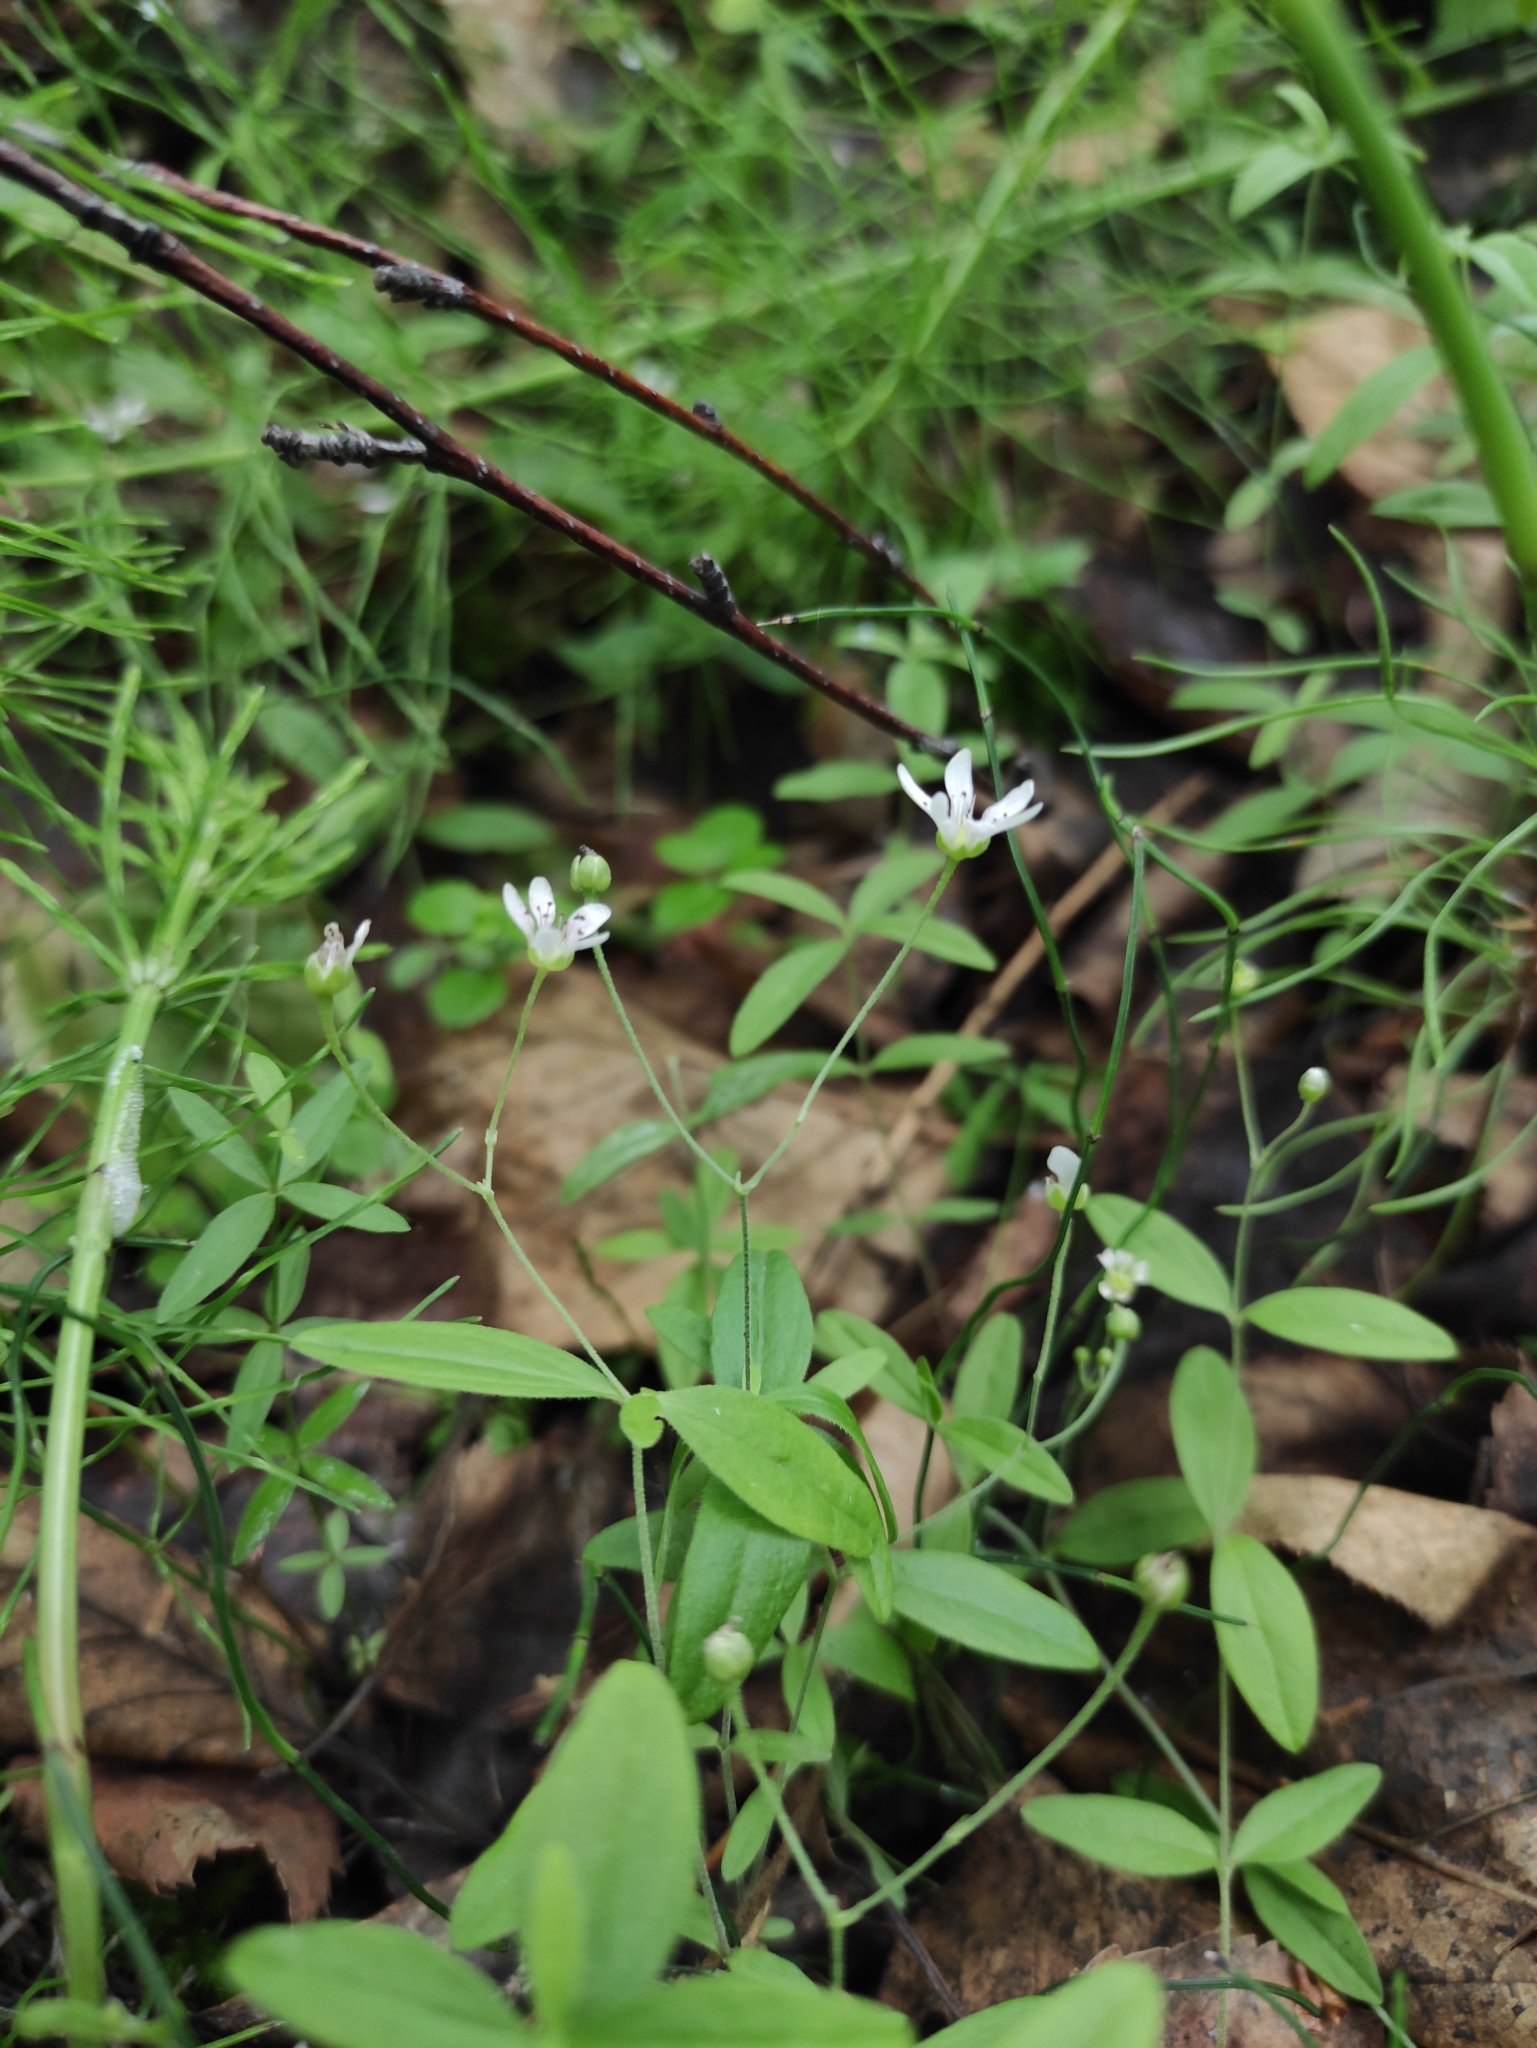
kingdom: Plantae
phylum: Tracheophyta
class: Magnoliopsida
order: Caryophyllales
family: Caryophyllaceae
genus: Moehringia
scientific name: Moehringia lateriflora
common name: Blunt-leaved sandwort
